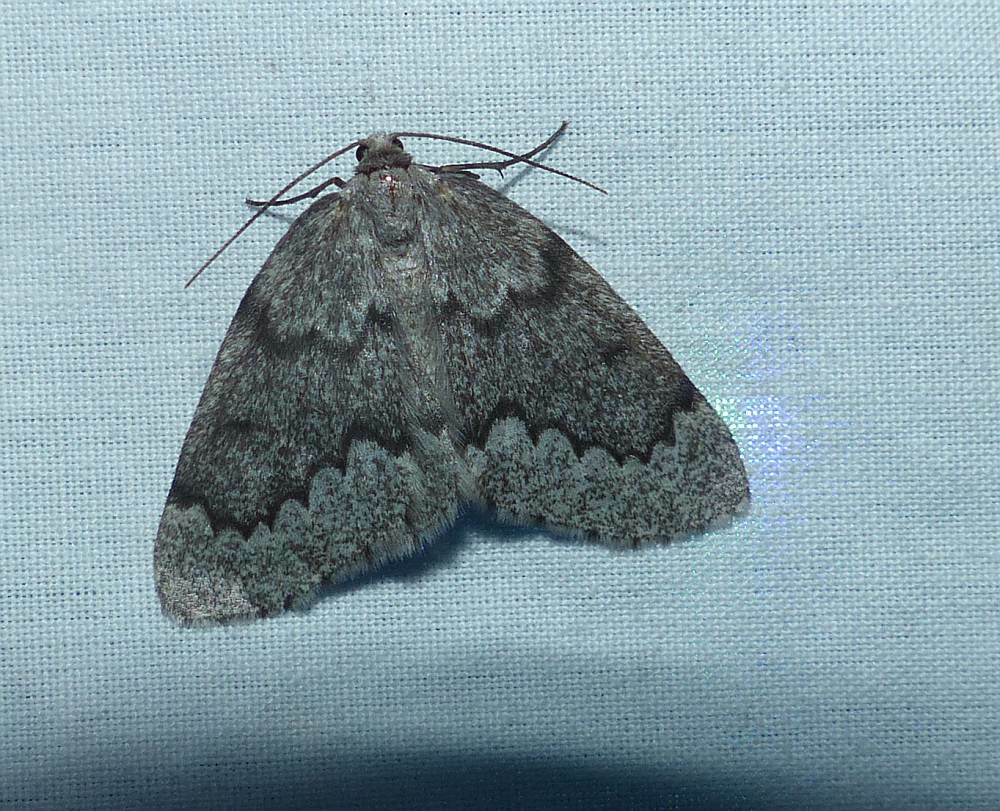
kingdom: Animalia
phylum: Arthropoda
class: Insecta
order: Lepidoptera
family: Geometridae
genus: Nepytia
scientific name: Nepytia canosaria
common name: False hemlock looper
